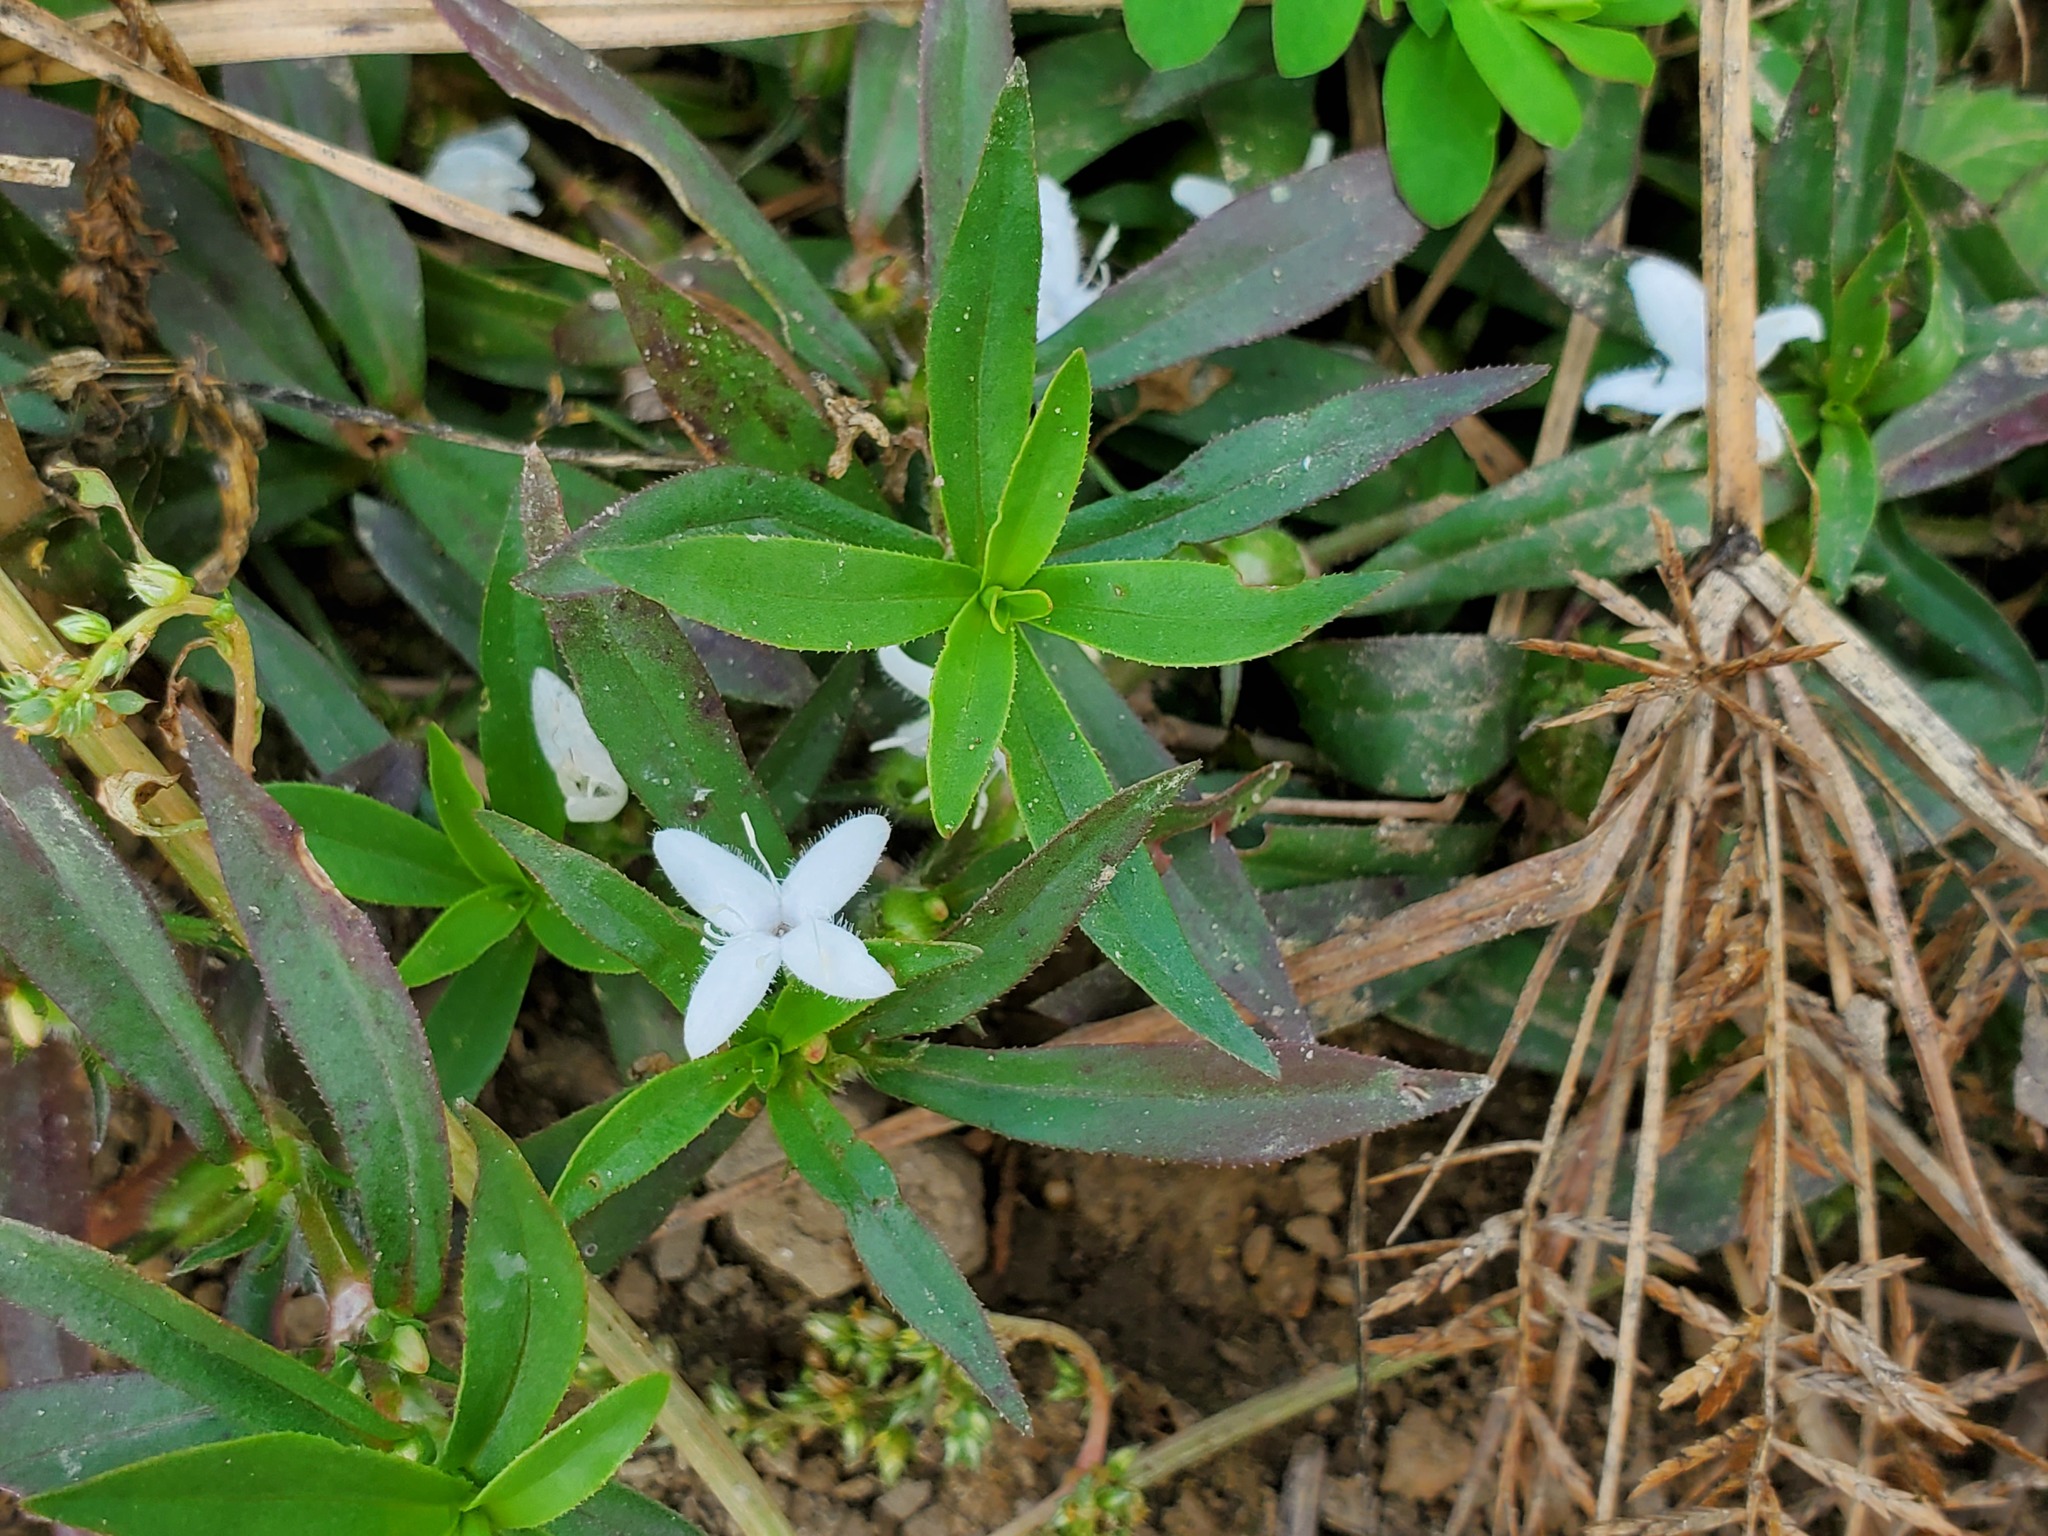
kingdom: Plantae
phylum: Tracheophyta
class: Magnoliopsida
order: Gentianales
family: Rubiaceae
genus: Diodia
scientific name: Diodia virginiana
